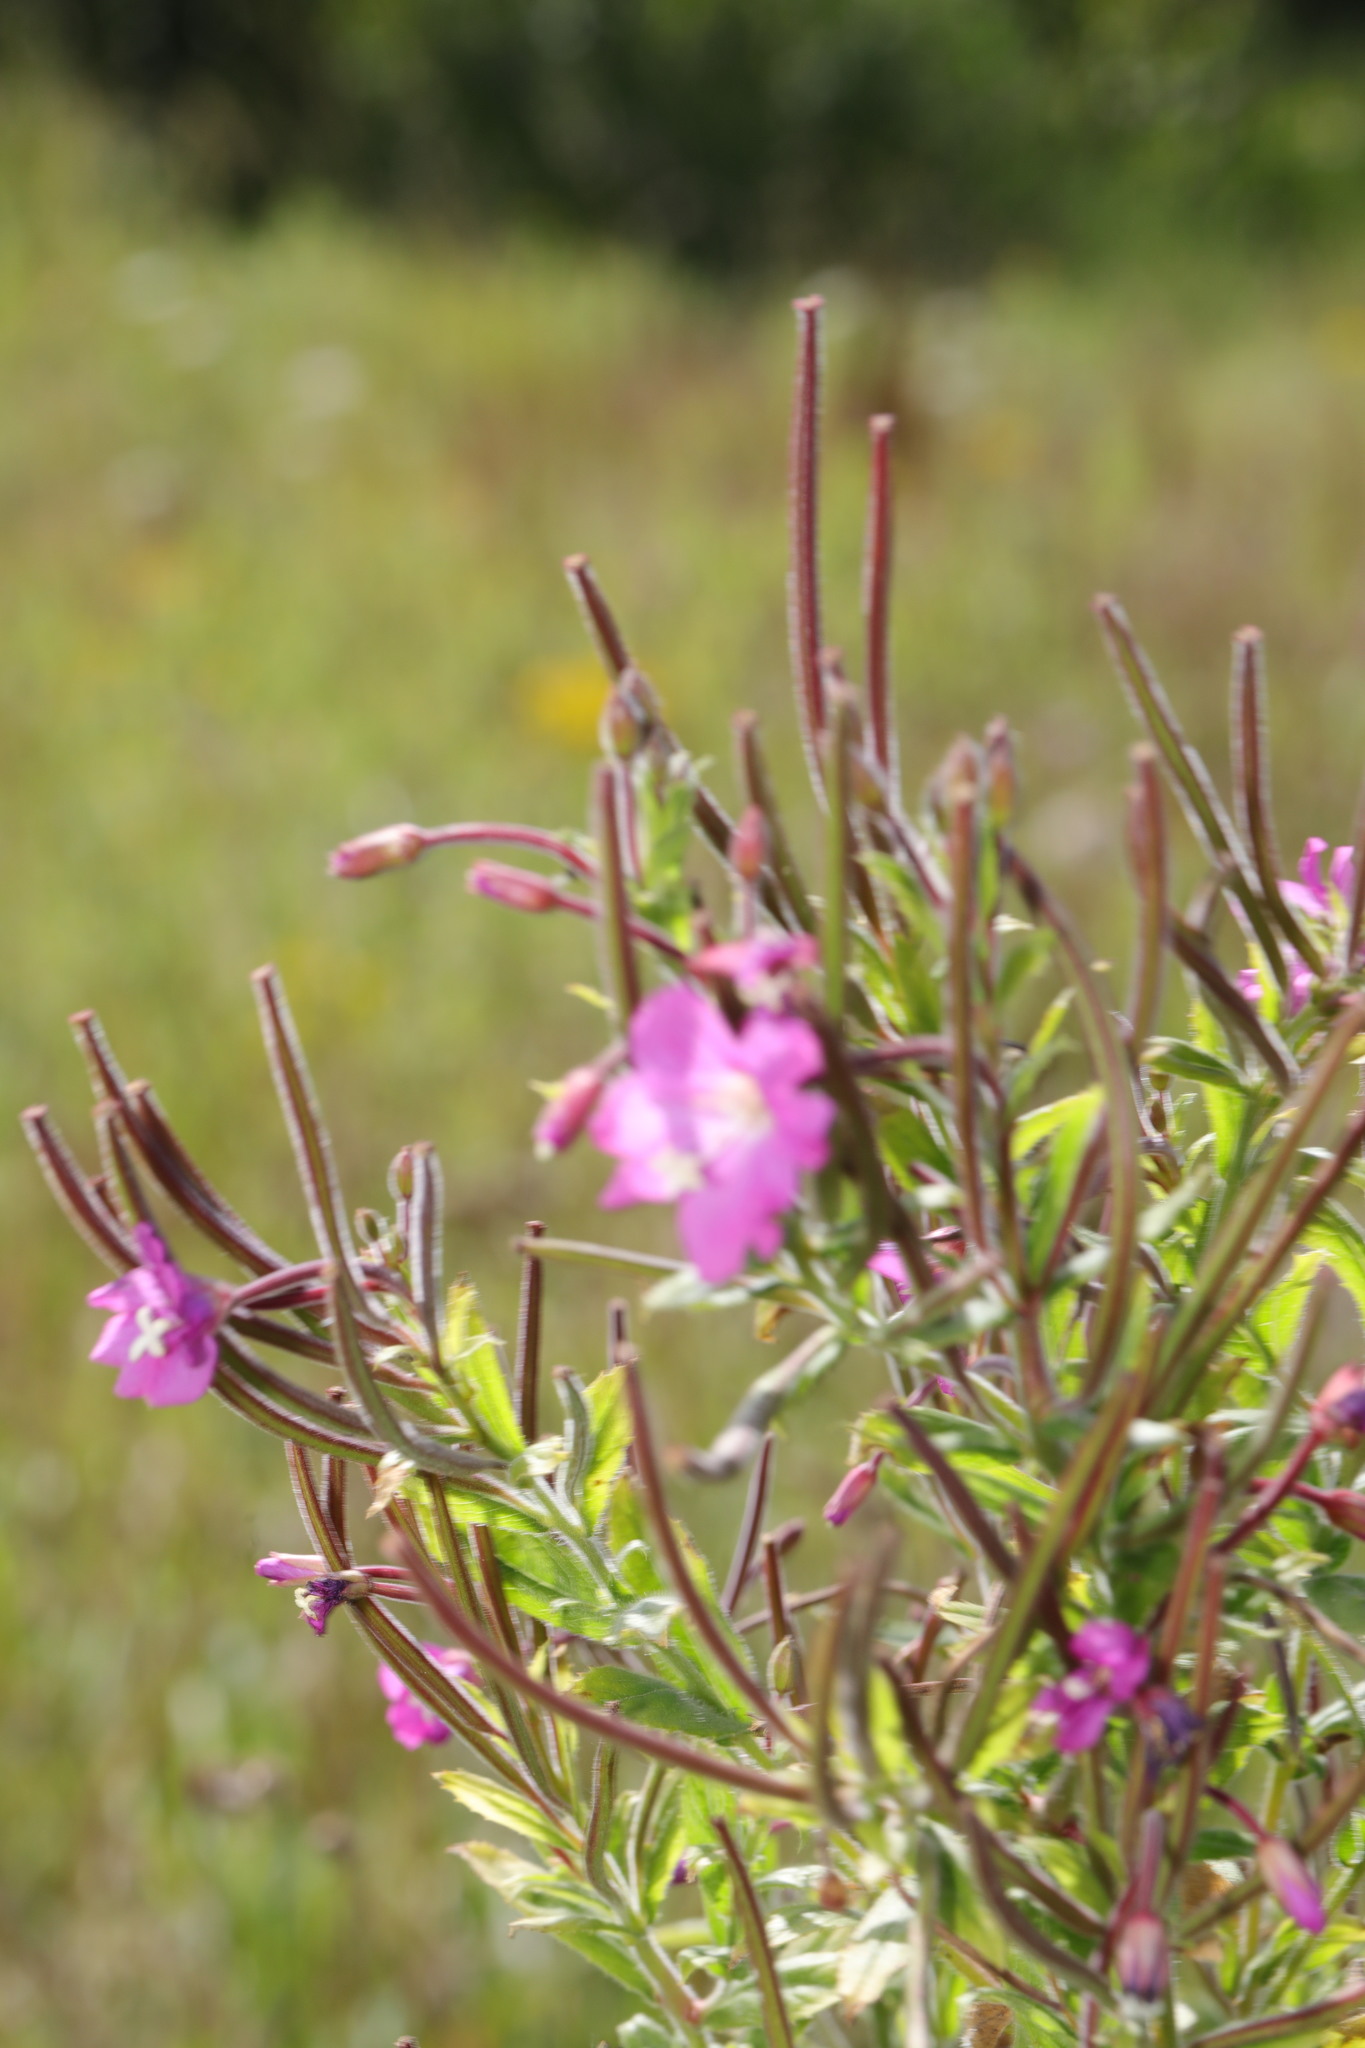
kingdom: Plantae
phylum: Tracheophyta
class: Magnoliopsida
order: Myrtales
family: Onagraceae
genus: Epilobium
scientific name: Epilobium hirsutum
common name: Great willowherb
